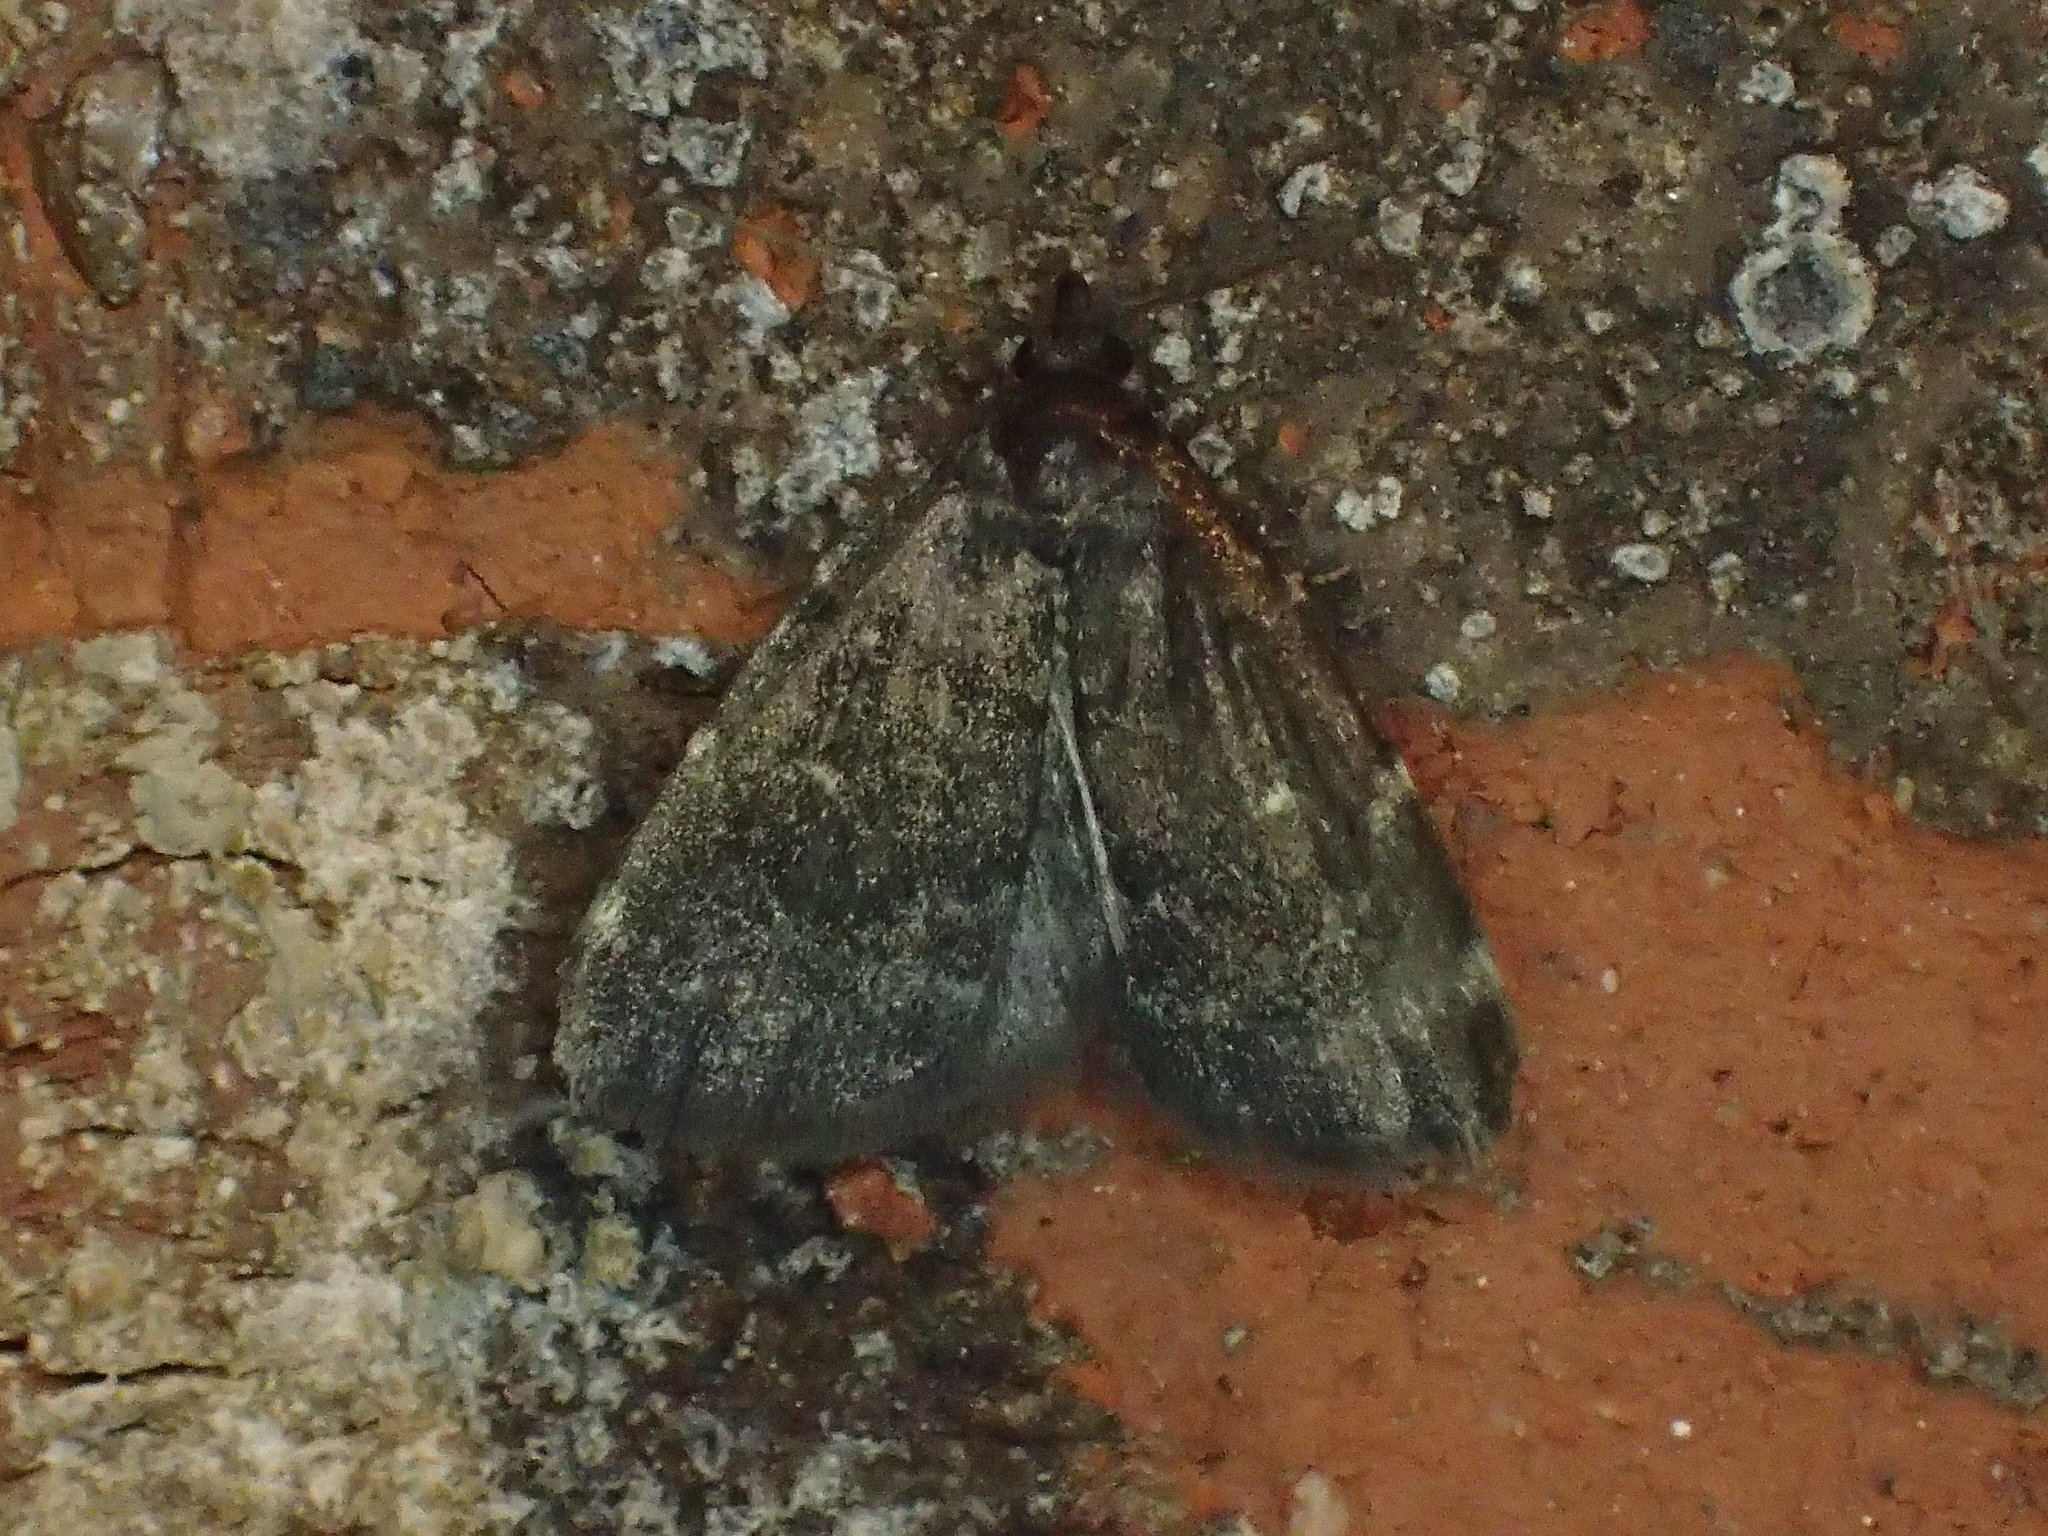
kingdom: Animalia
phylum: Arthropoda
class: Insecta
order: Lepidoptera
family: Erebidae
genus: Idia
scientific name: Idia julia
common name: Julia's idia moth
